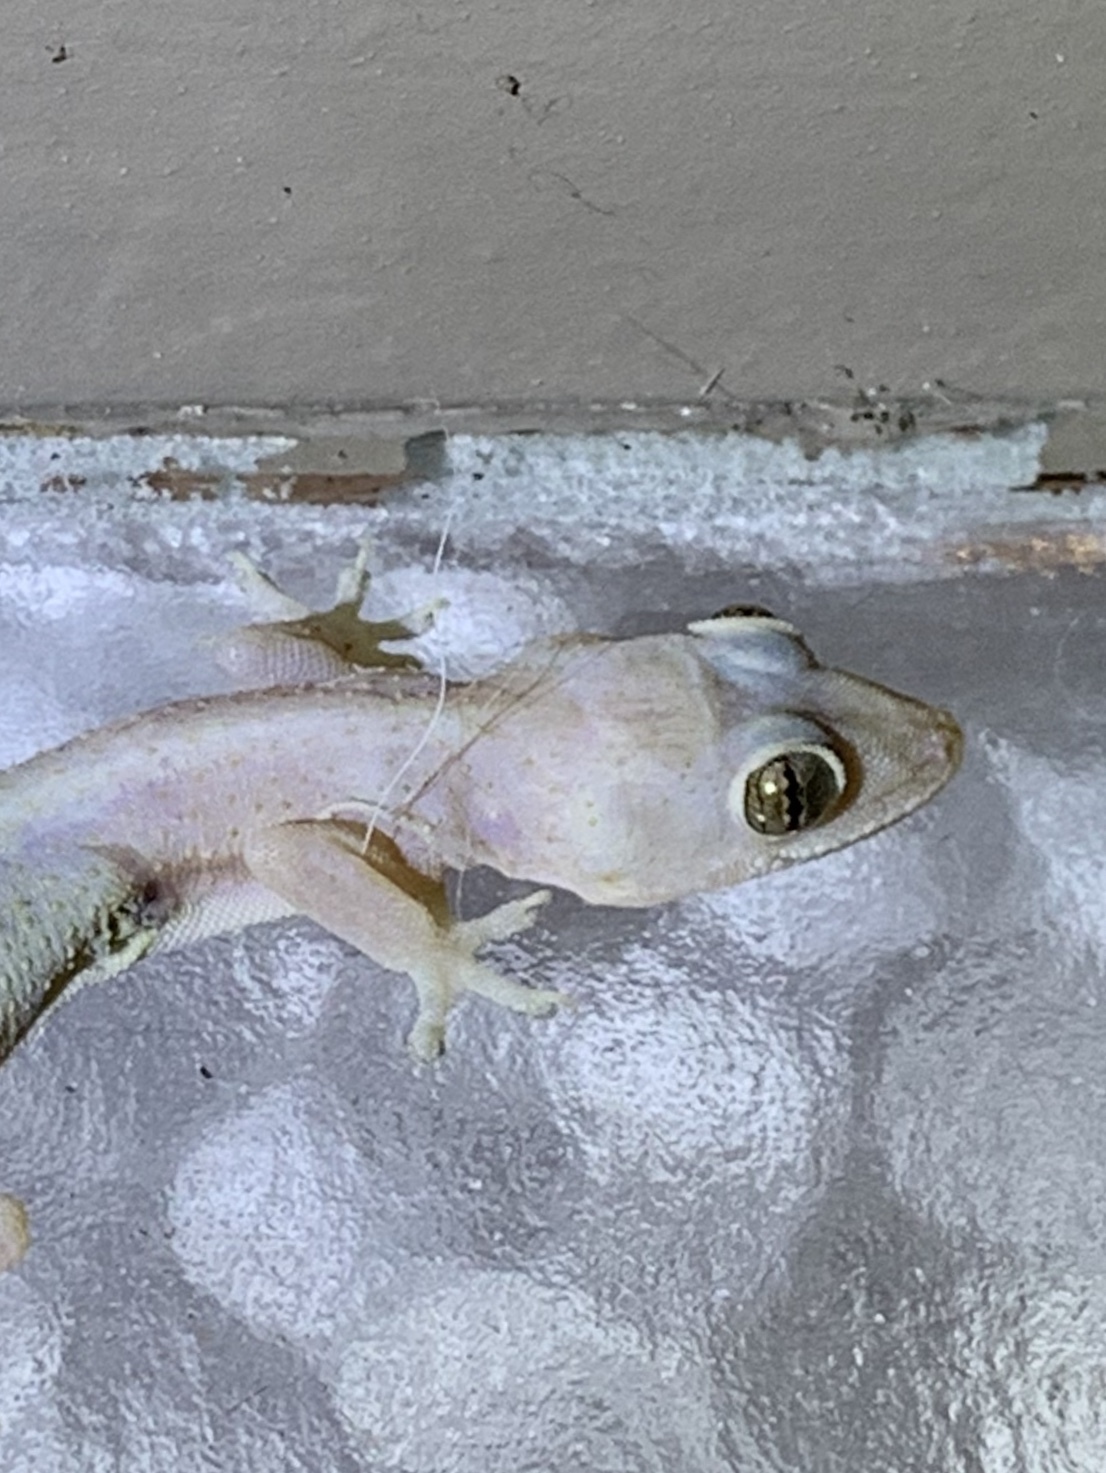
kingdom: Animalia
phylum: Chordata
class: Squamata
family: Gekkonidae
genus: Hemidactylus
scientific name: Hemidactylus mabouia
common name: House gecko
